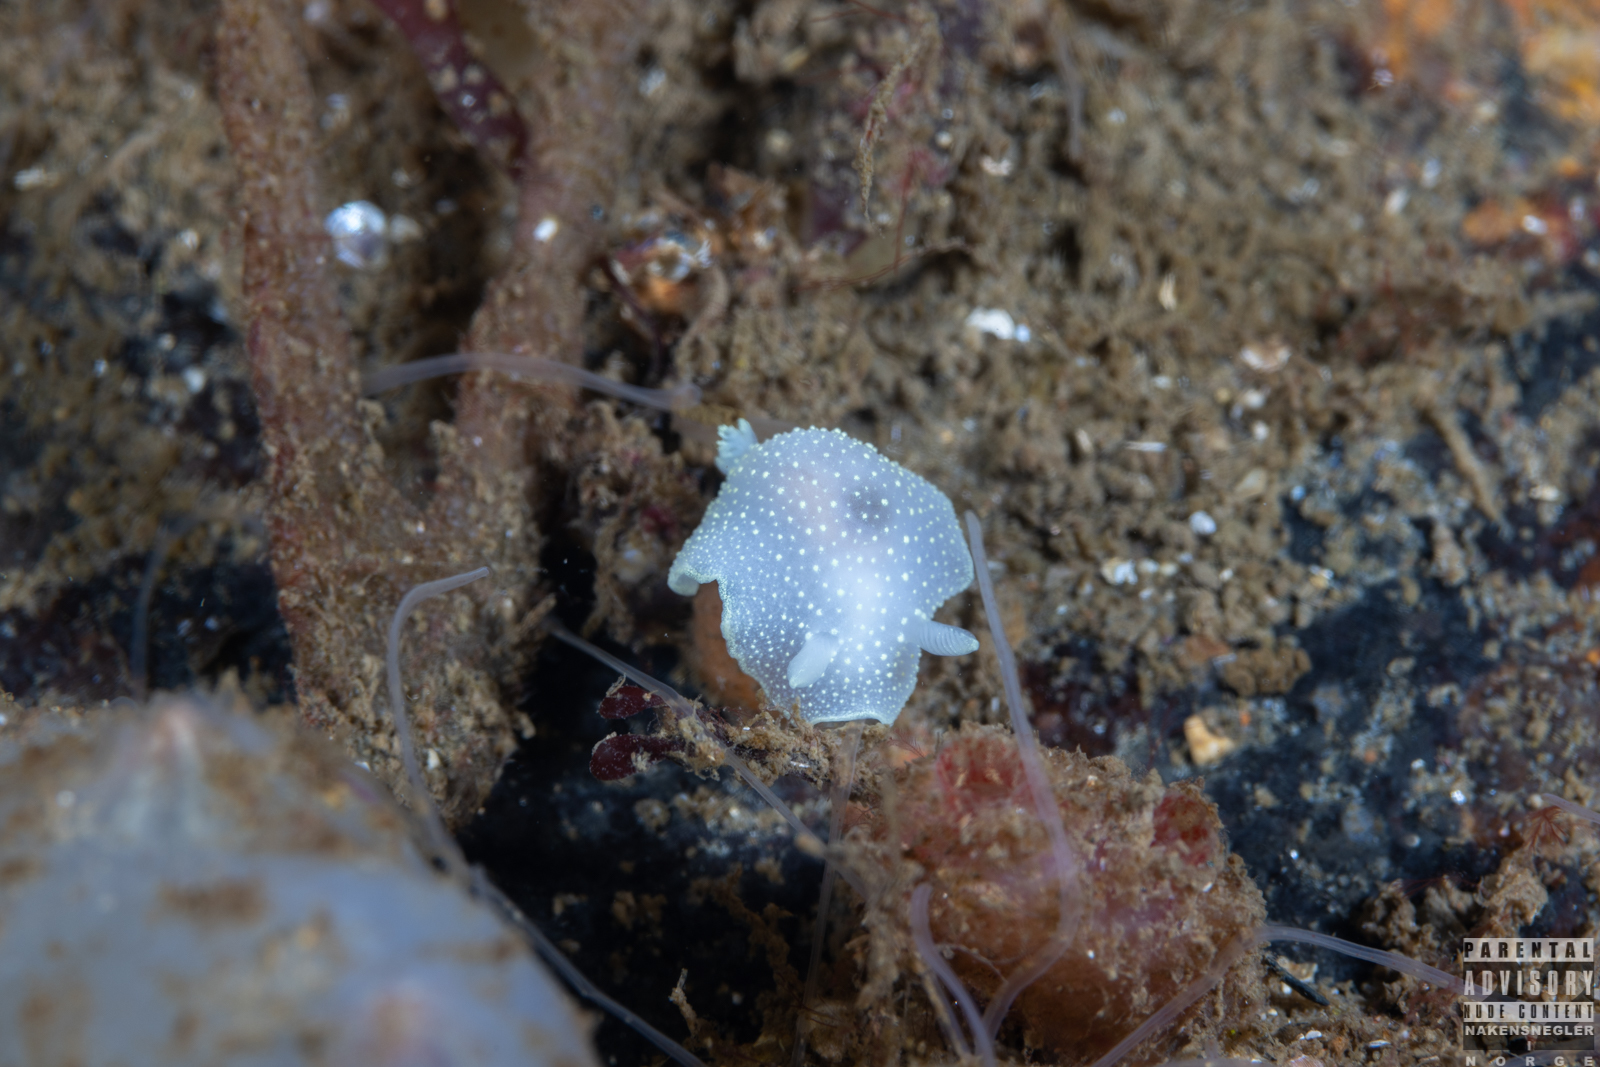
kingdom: Animalia
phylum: Mollusca
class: Gastropoda
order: Nudibranchia
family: Cadlinidae
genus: Cadlina
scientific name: Cadlina laevis
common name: White atlantic cadlina
